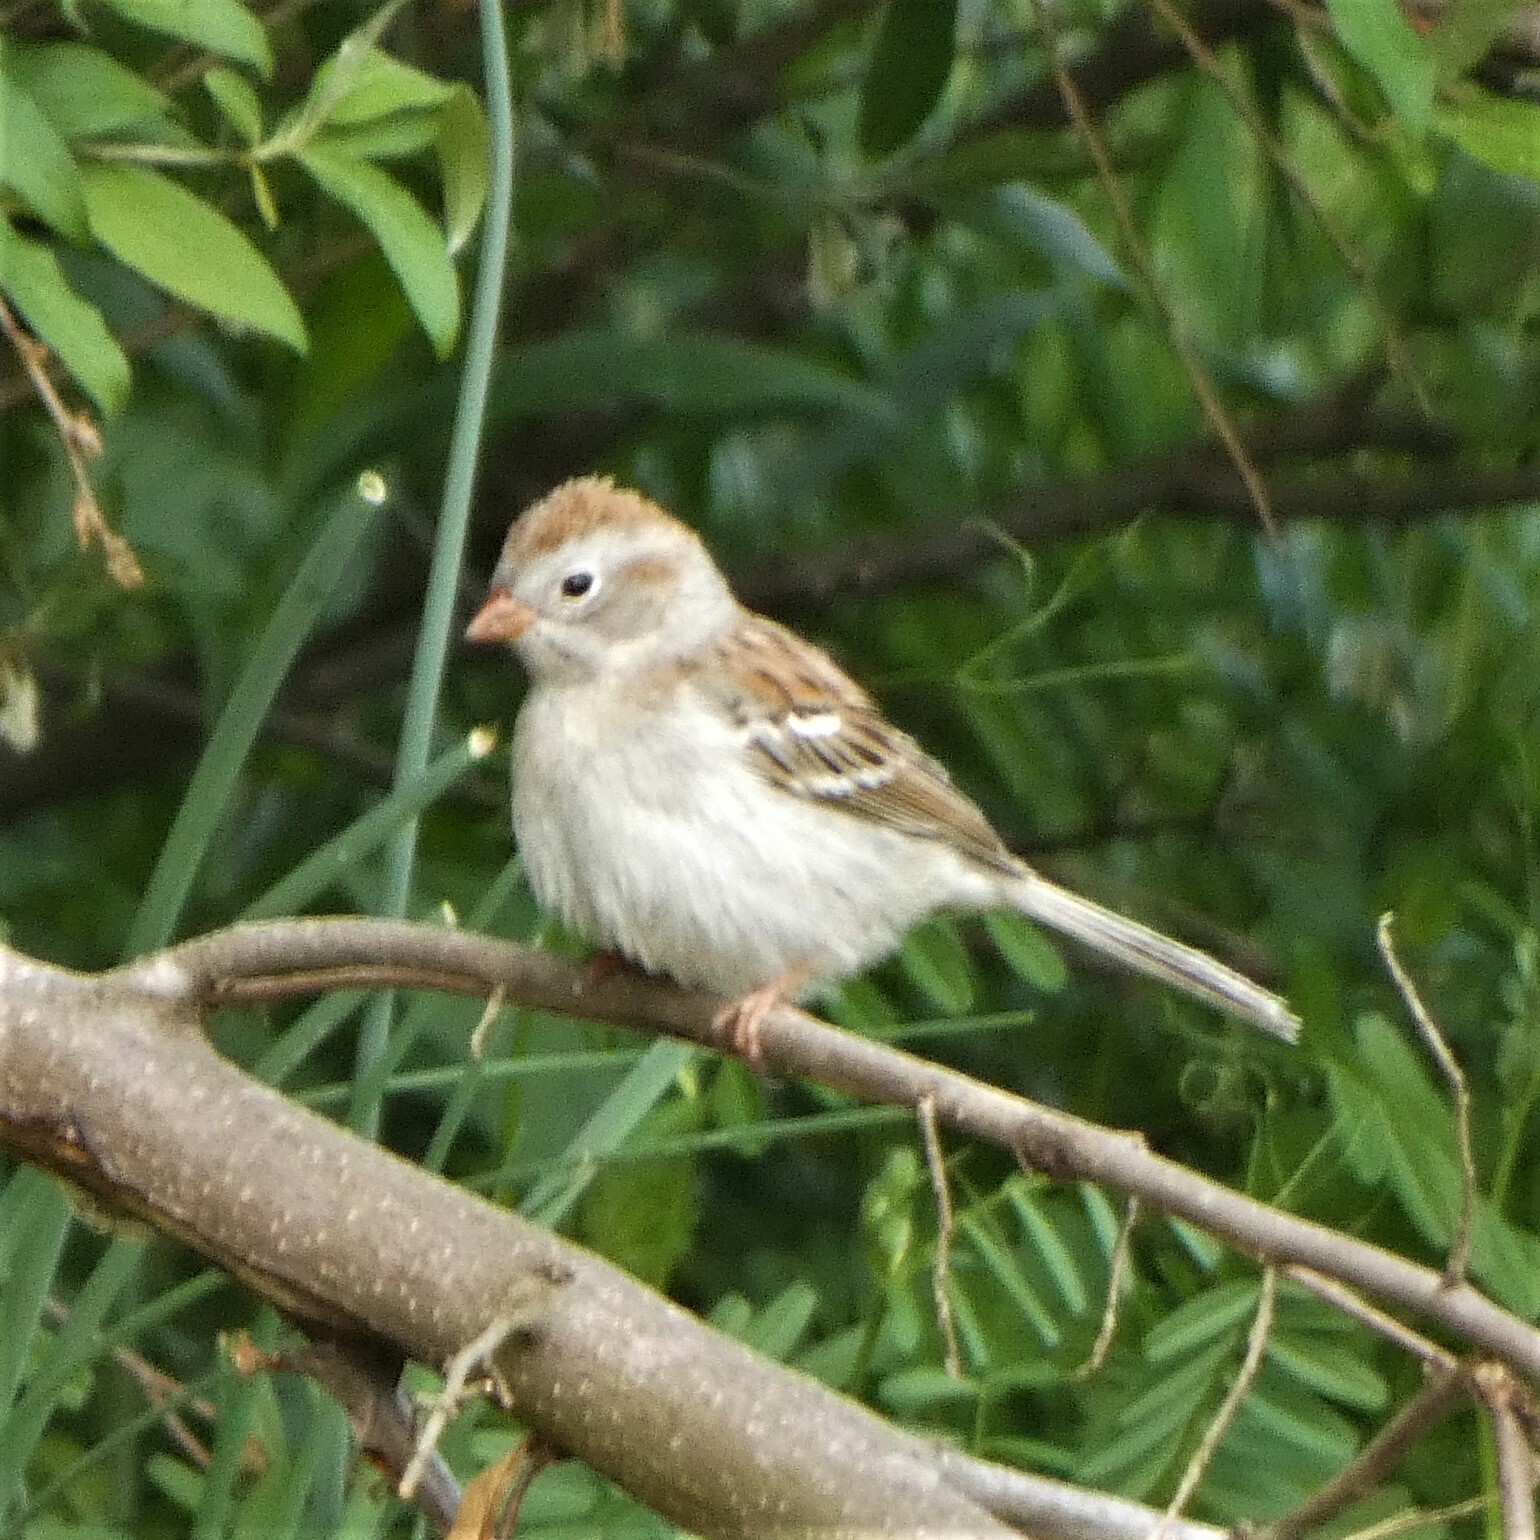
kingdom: Animalia
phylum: Chordata
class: Aves
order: Passeriformes
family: Passerellidae
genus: Spizella
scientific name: Spizella pusilla
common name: Field sparrow
